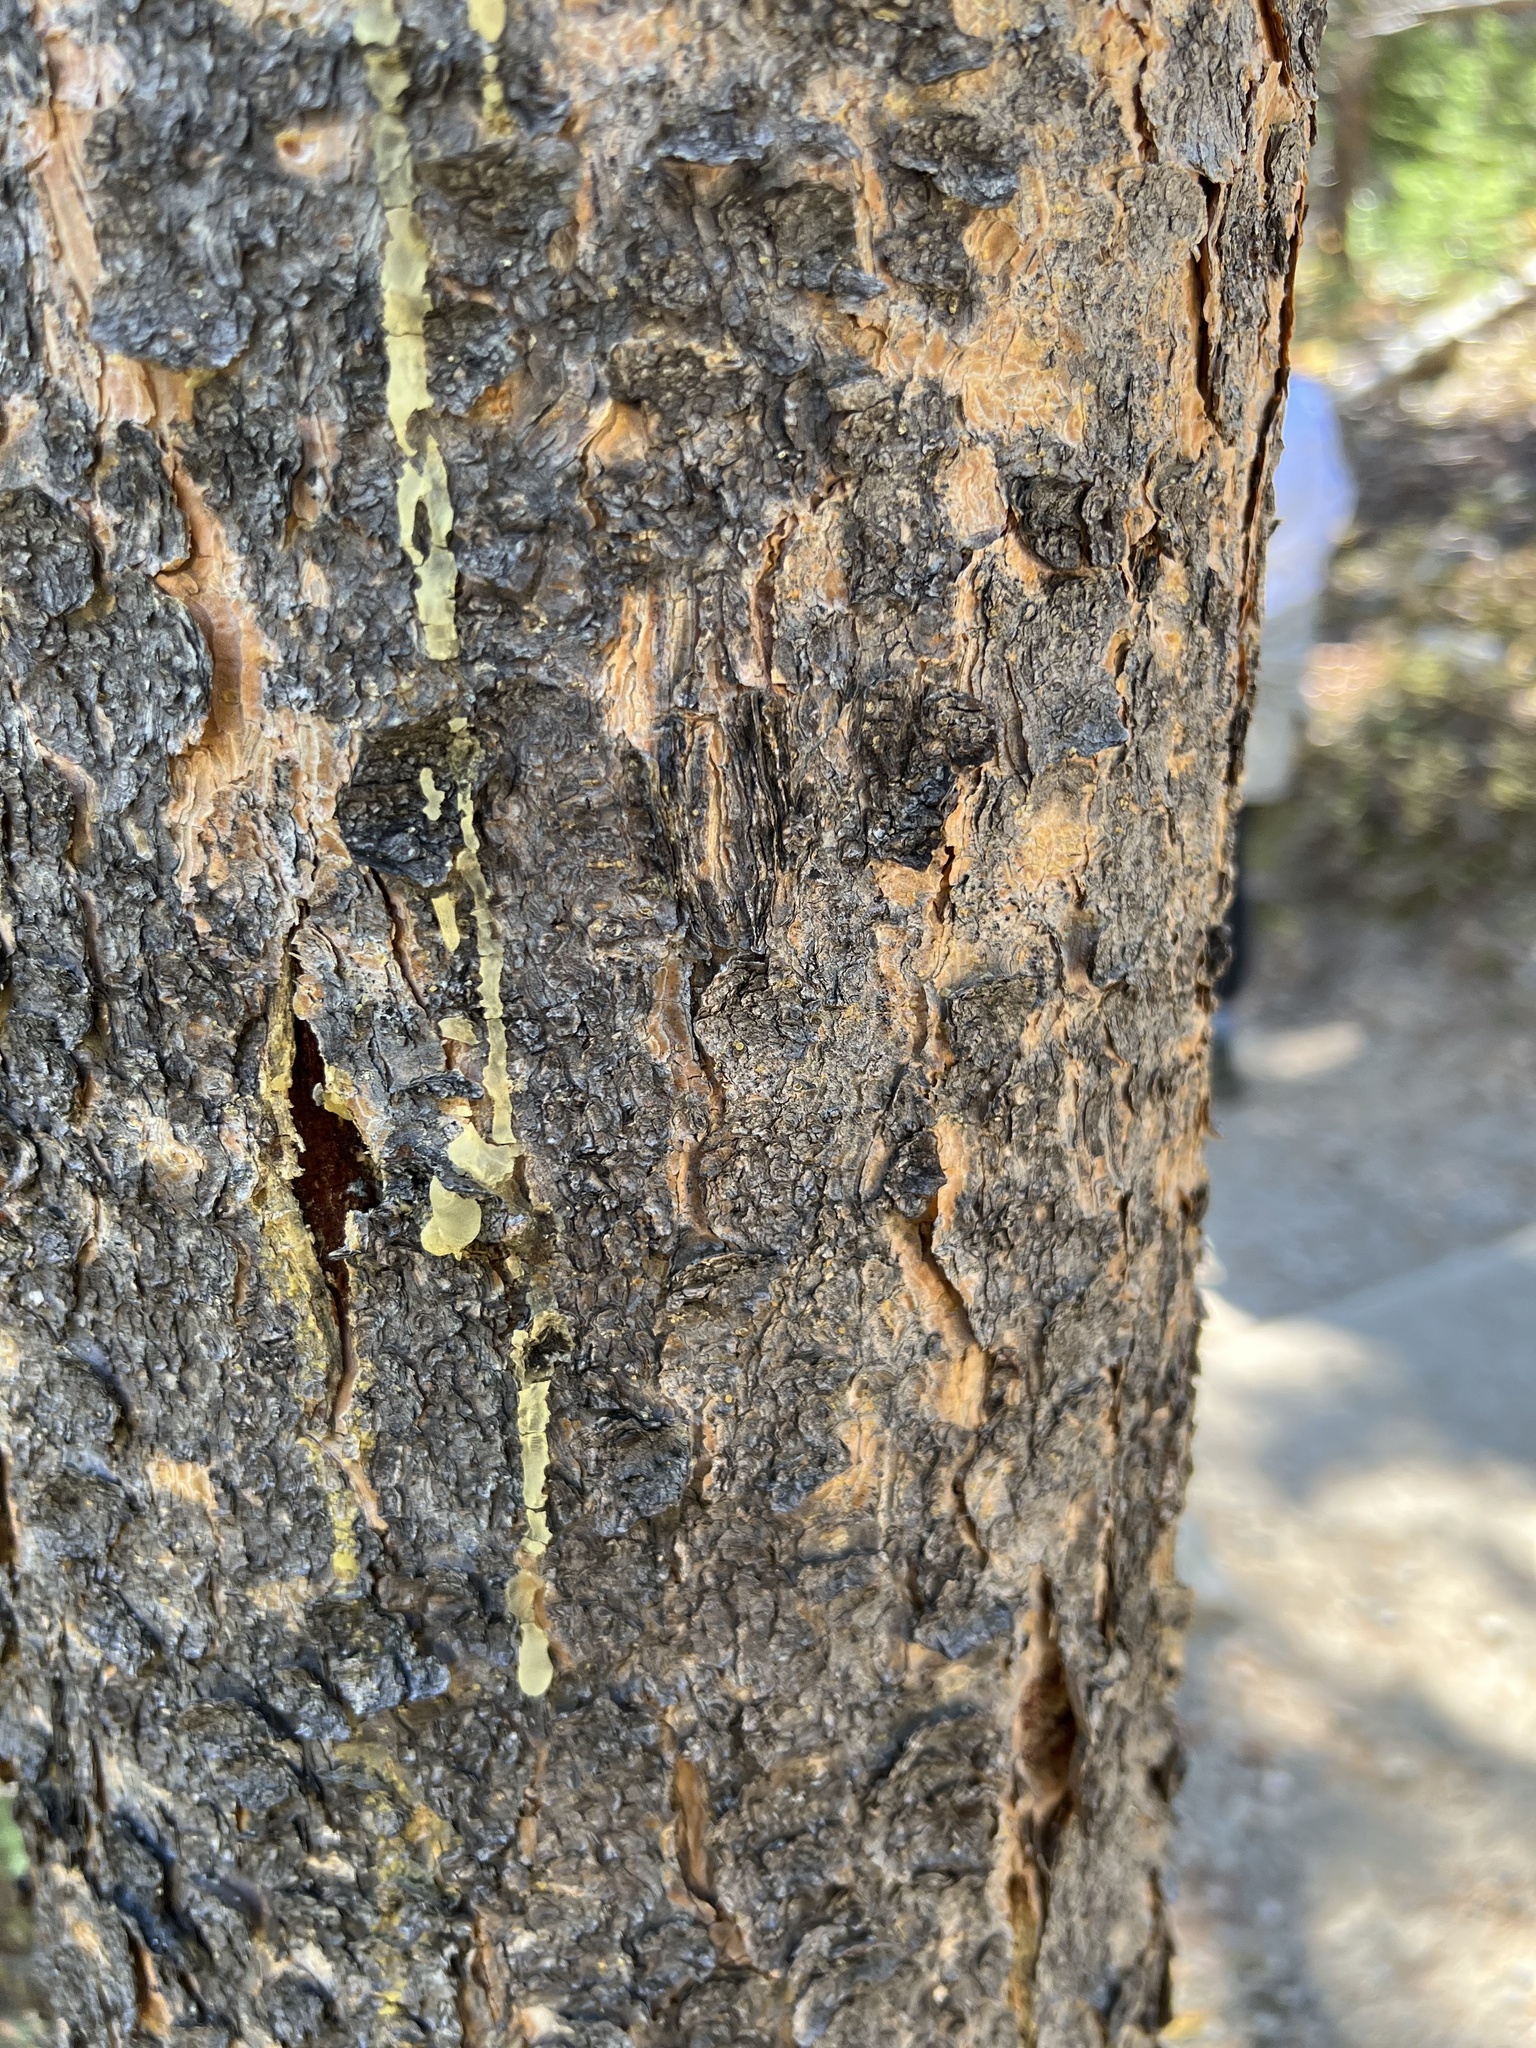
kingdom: Plantae
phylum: Tracheophyta
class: Pinopsida
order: Pinales
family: Pinaceae
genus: Pinus
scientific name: Pinus contorta
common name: Lodgepole pine
